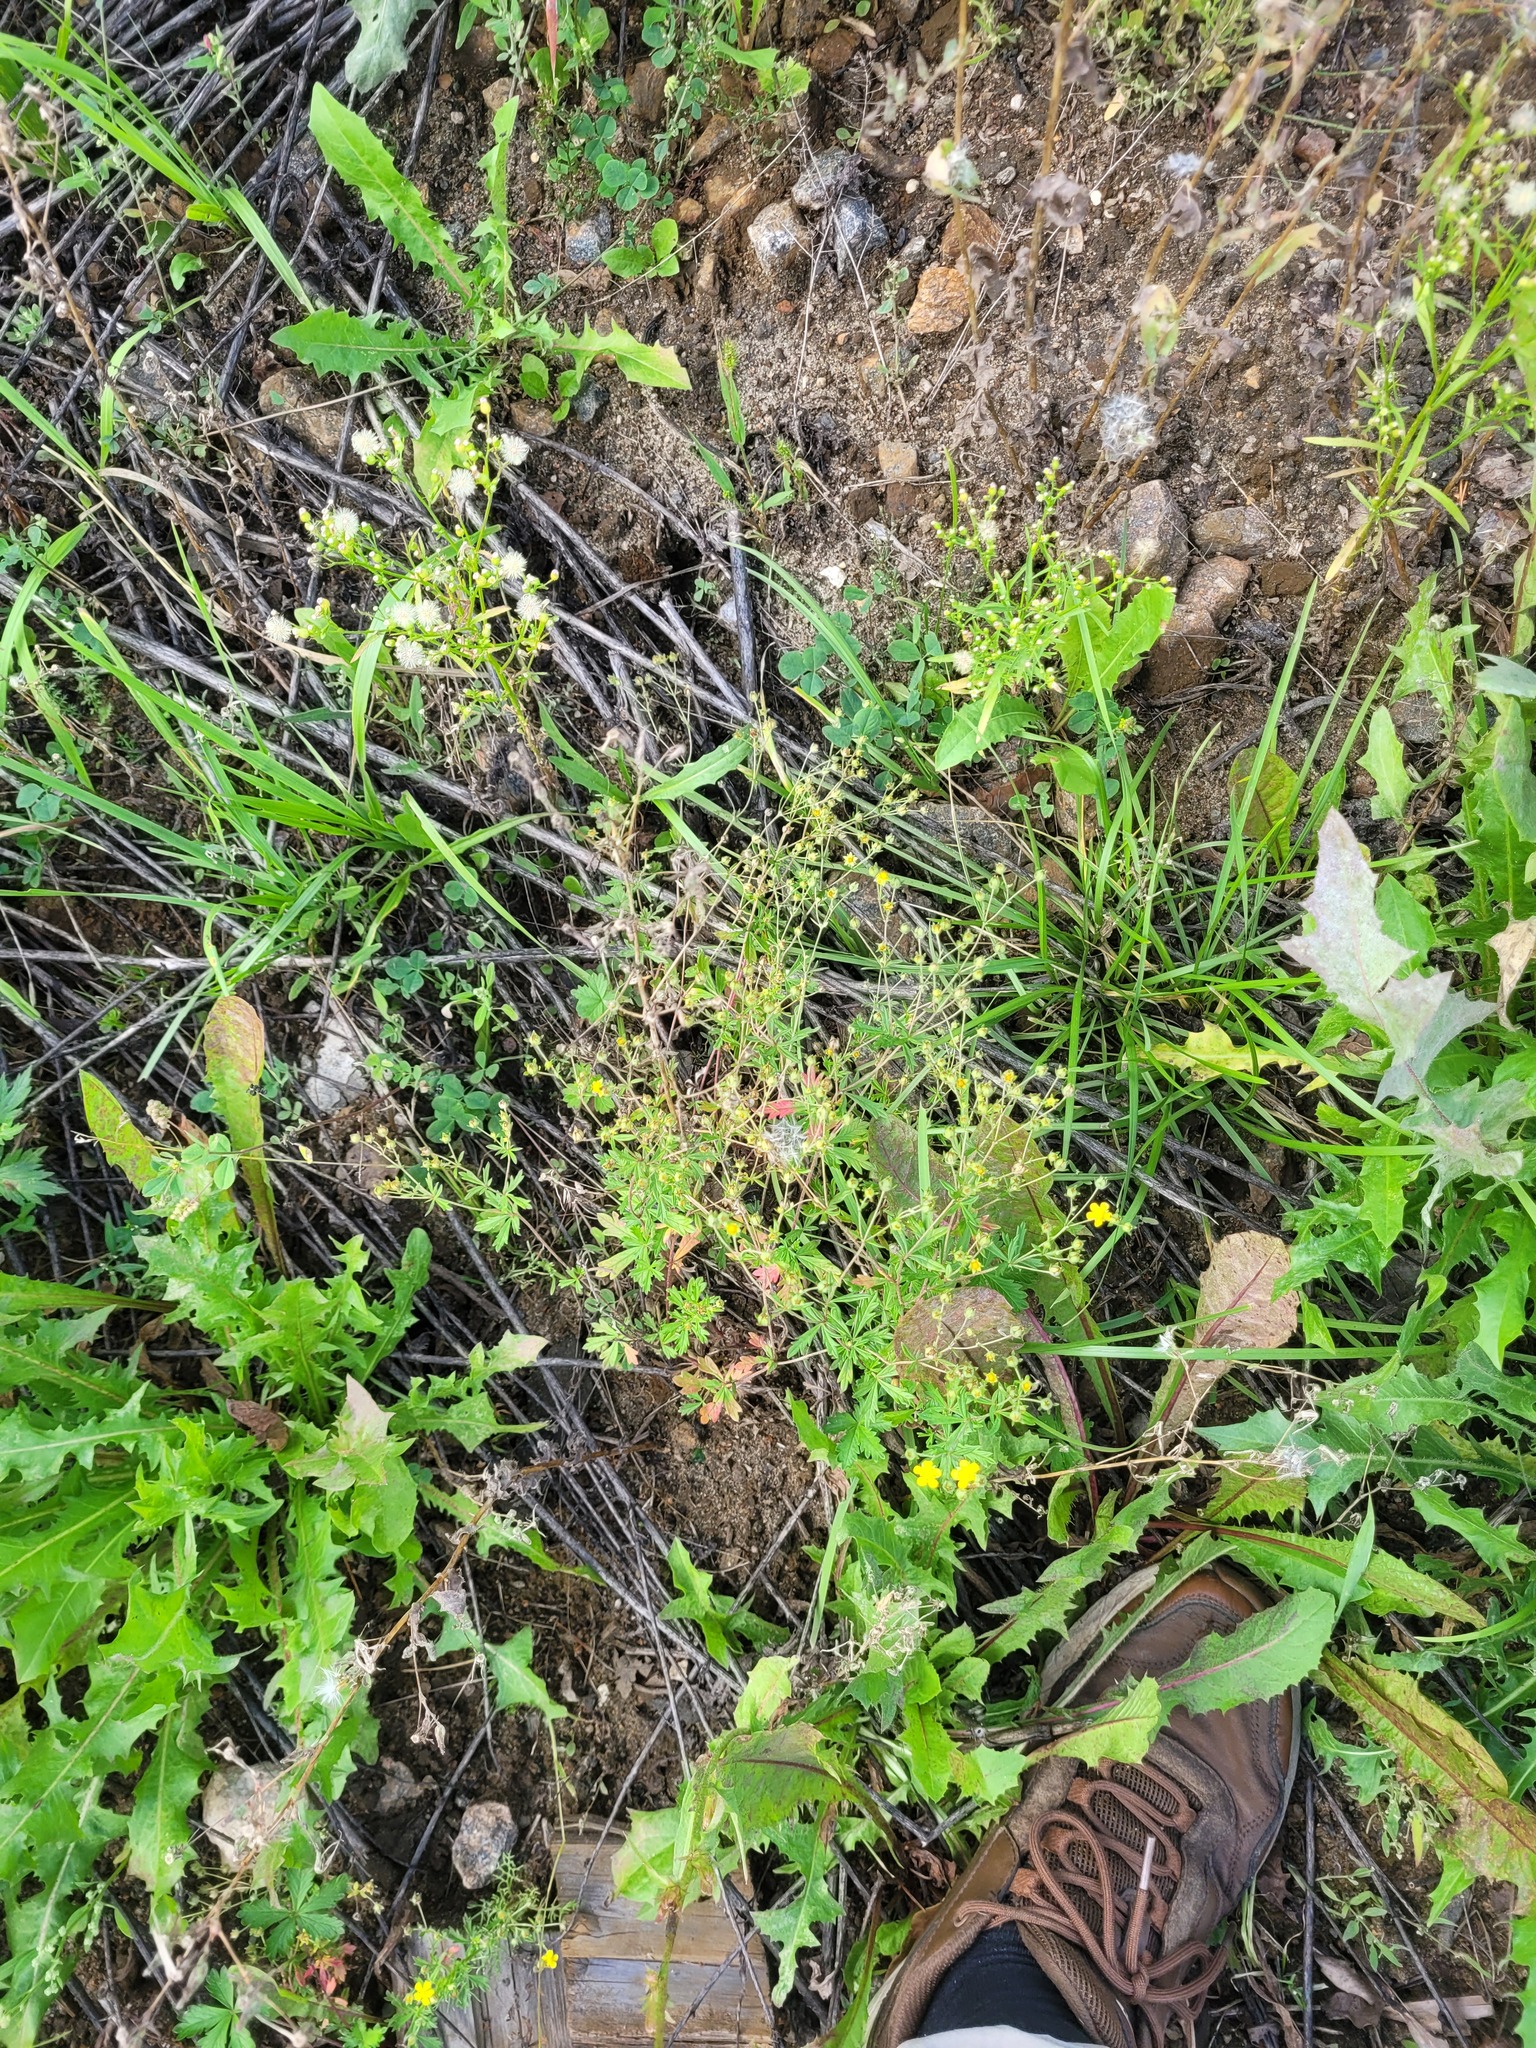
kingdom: Plantae
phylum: Tracheophyta
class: Magnoliopsida
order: Rosales
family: Rosaceae
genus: Potentilla
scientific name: Potentilla argentea
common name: Hoary cinquefoil
